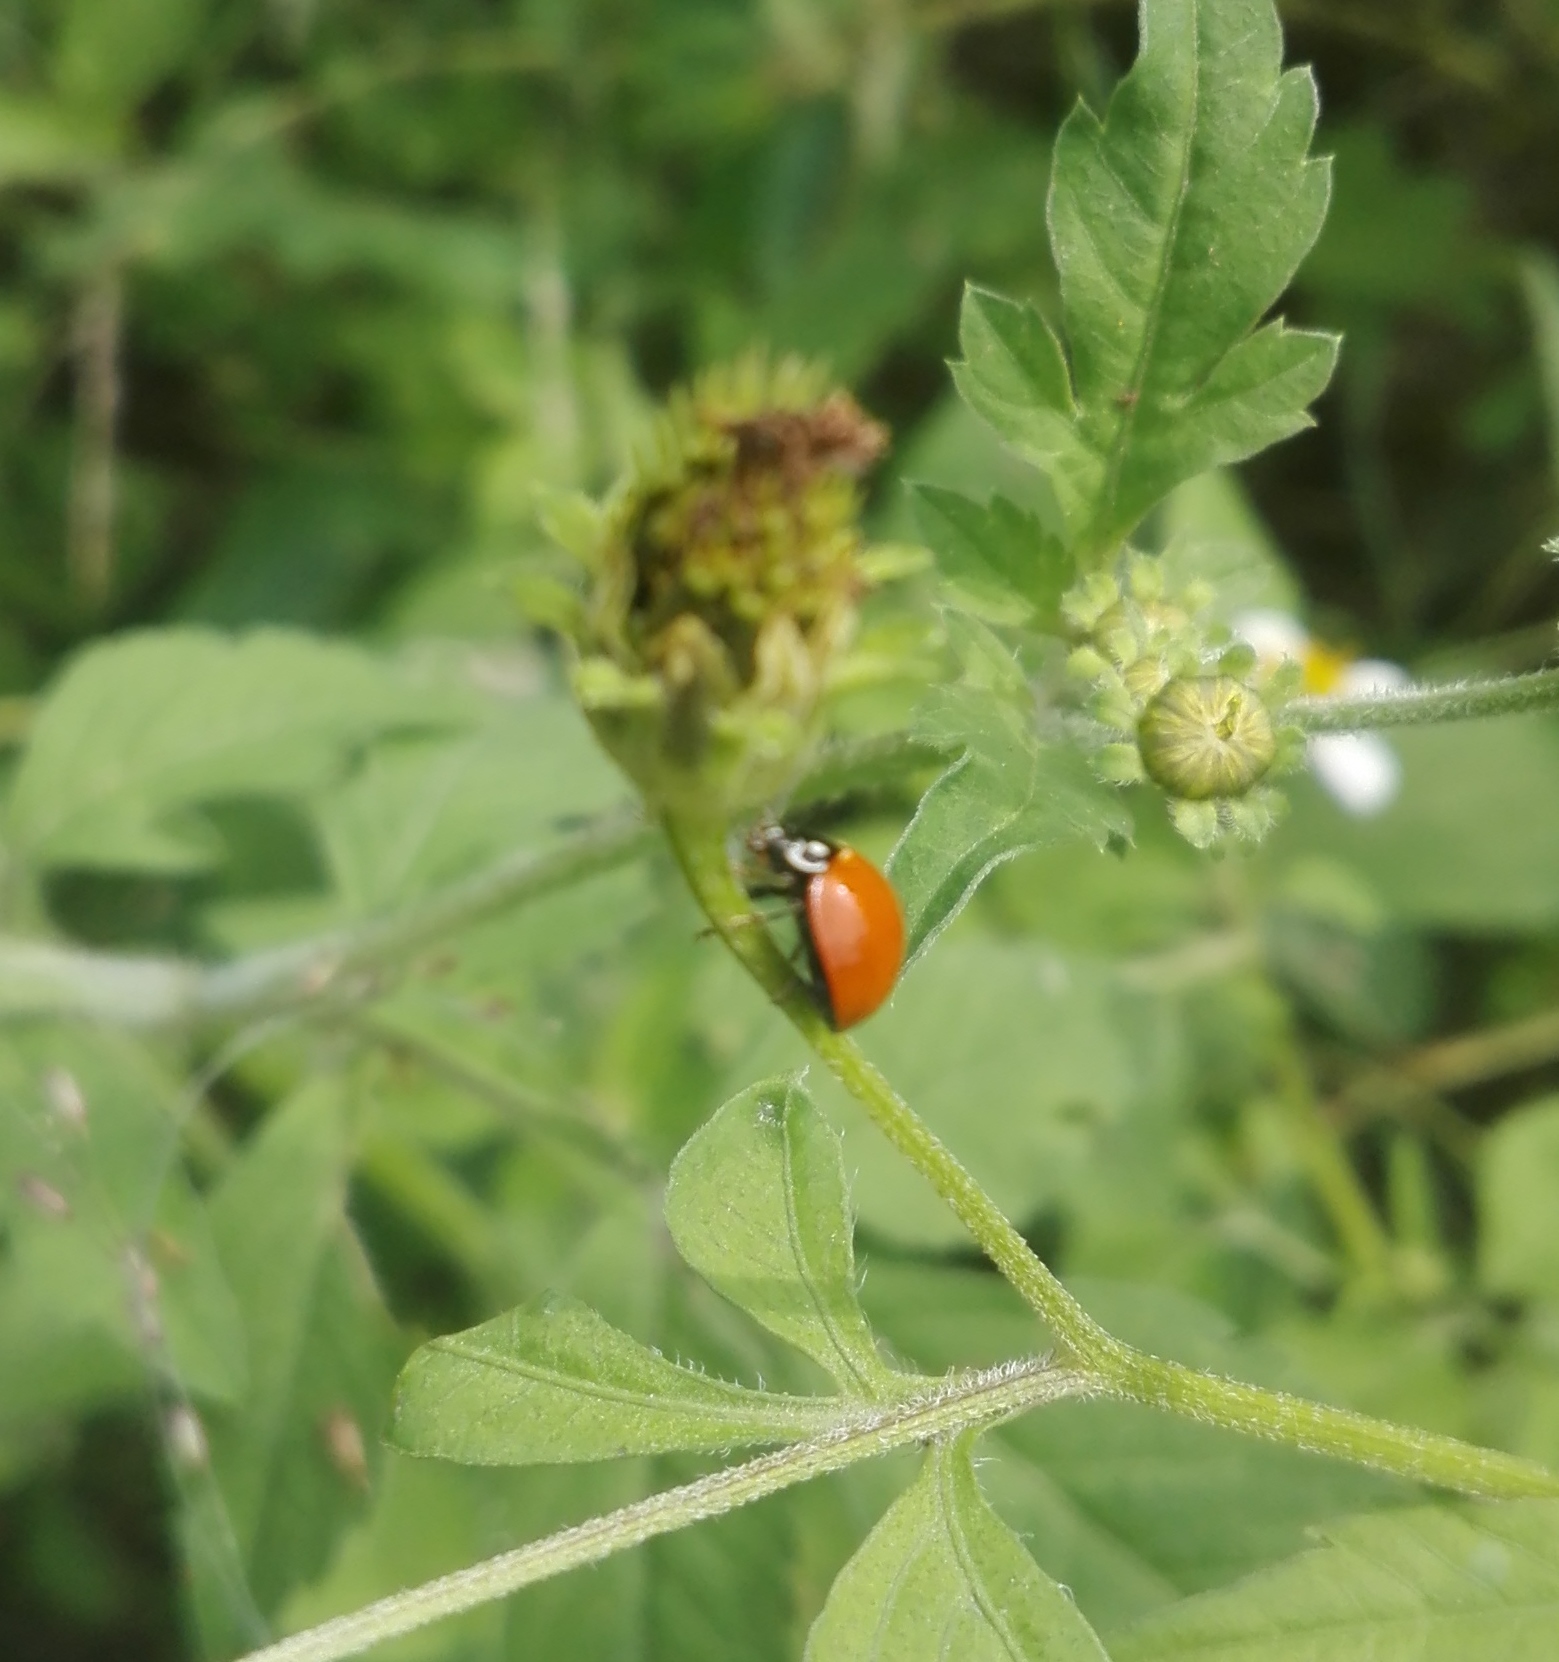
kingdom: Animalia
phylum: Arthropoda
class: Insecta
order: Coleoptera
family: Coccinellidae
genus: Cycloneda
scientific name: Cycloneda sanguinea
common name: Ladybird beetle
